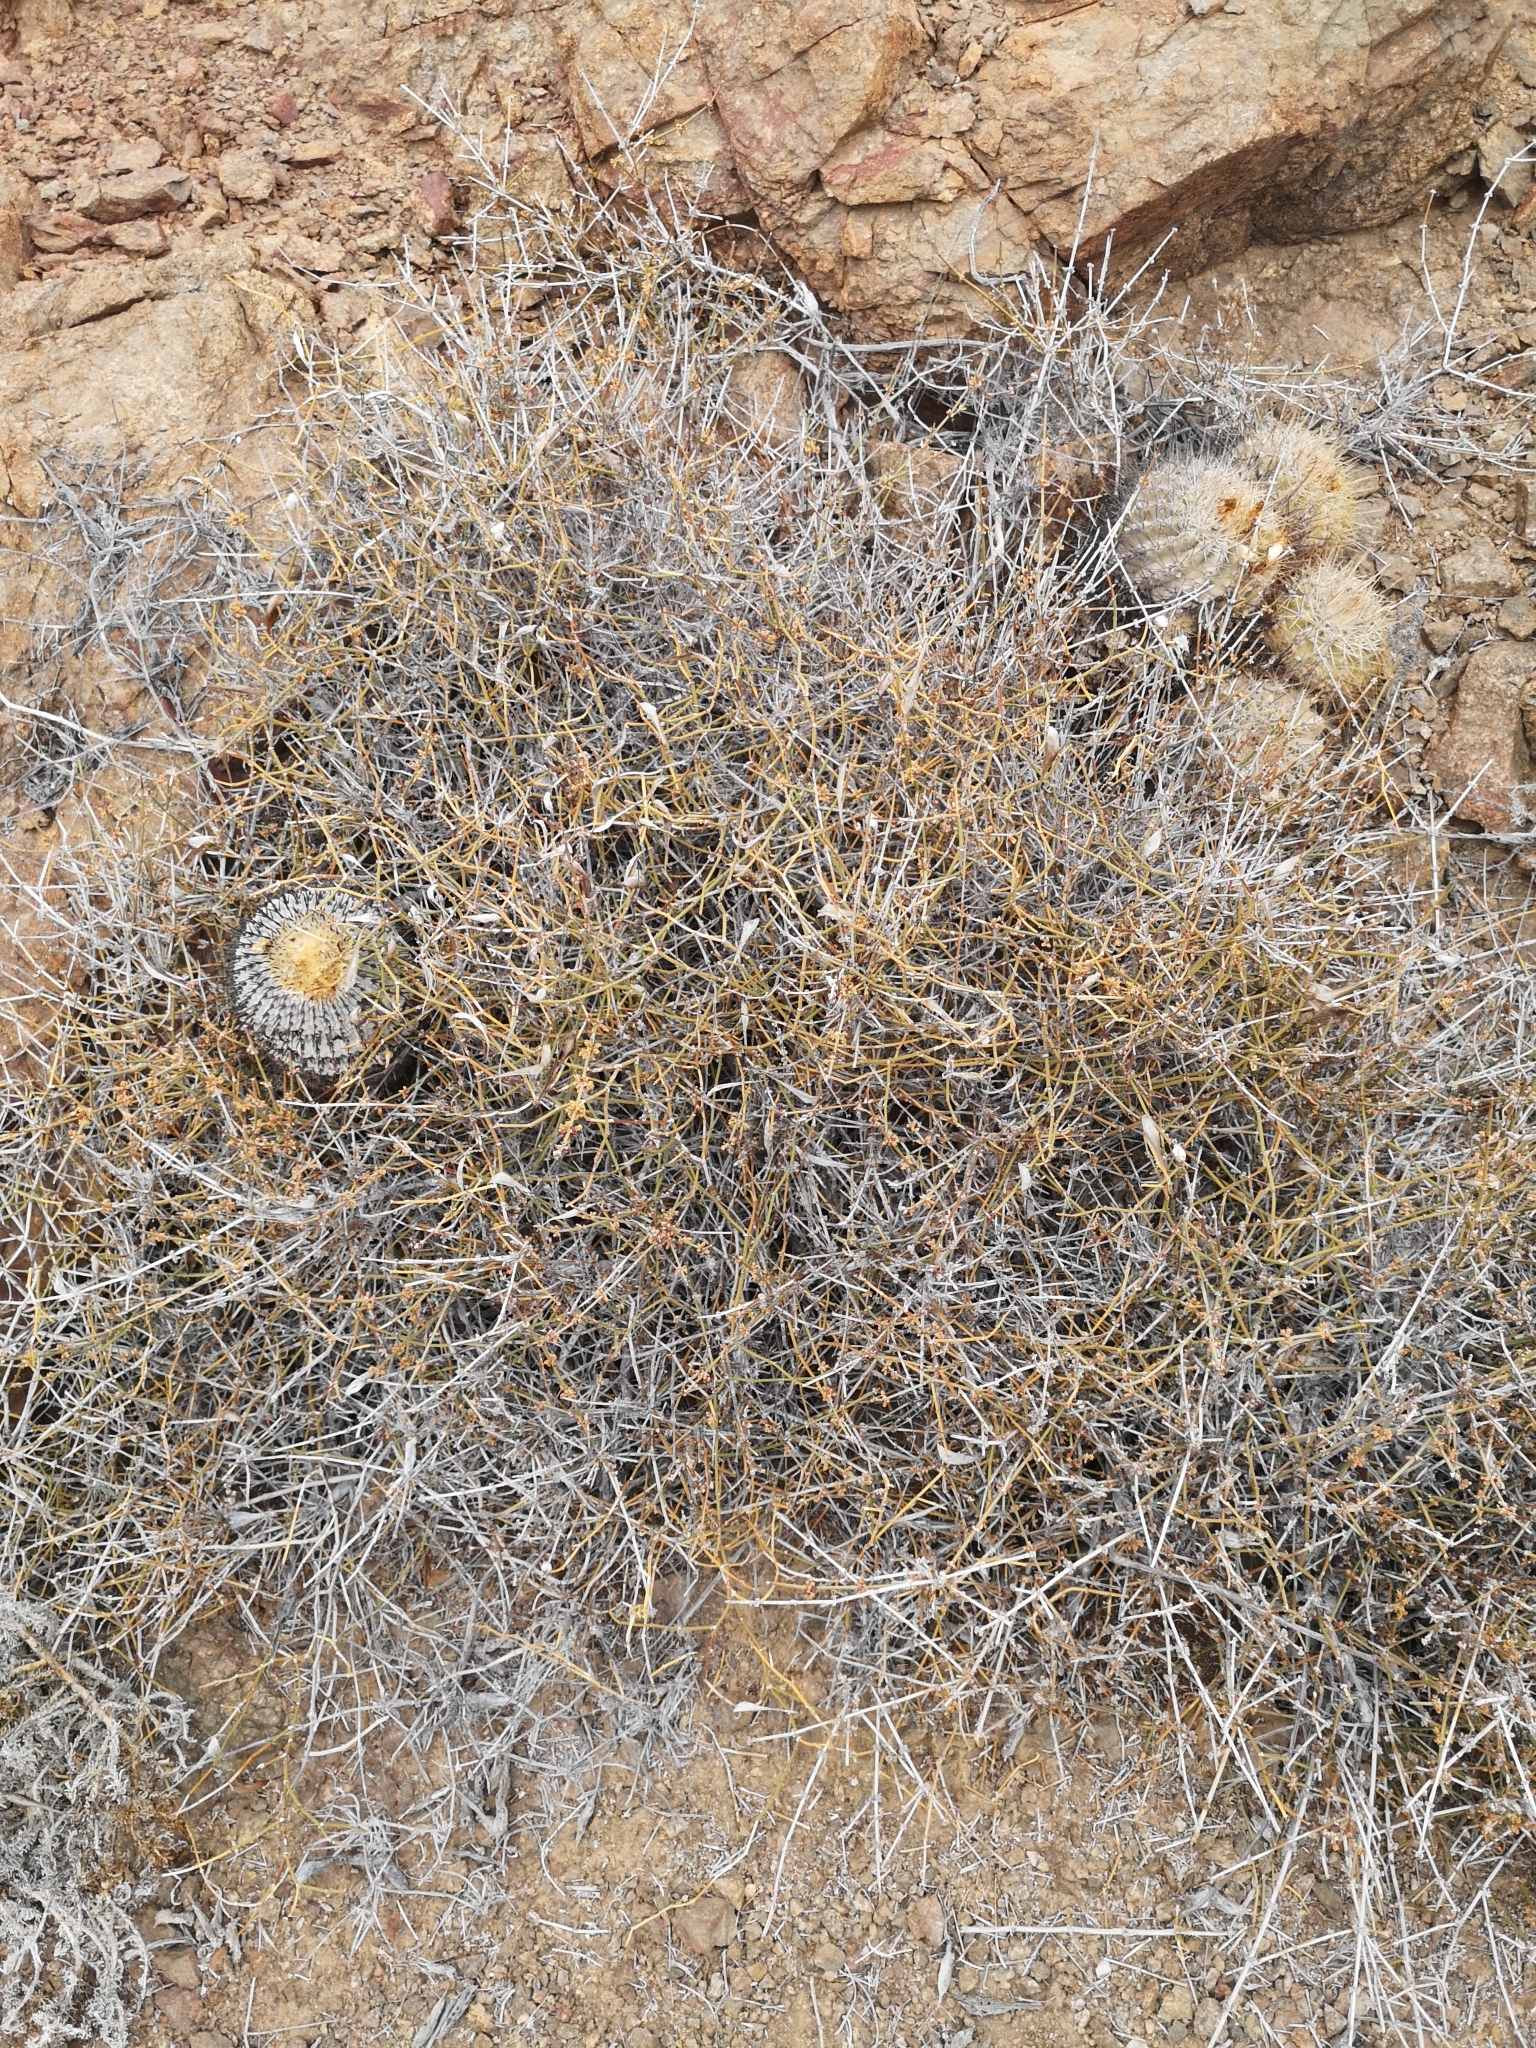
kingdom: Plantae
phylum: Tracheophyta
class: Gnetopsida
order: Ephedrales
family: Ephedraceae
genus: Ephedra
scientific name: Ephedra chilensis
